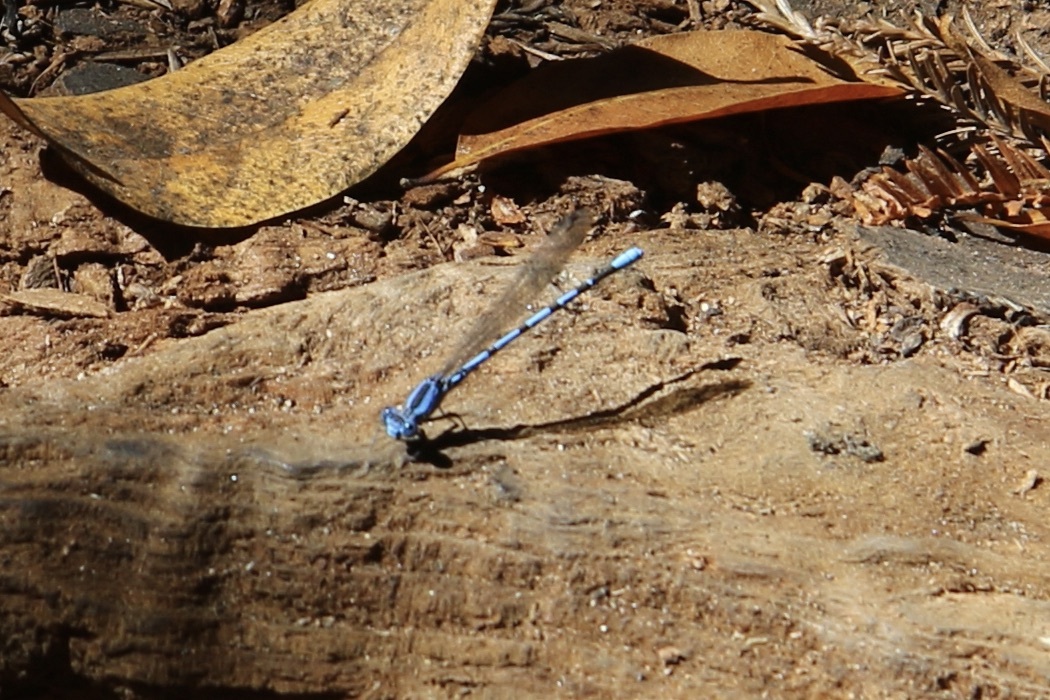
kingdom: Animalia
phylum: Arthropoda
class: Insecta
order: Odonata
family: Coenagrionidae
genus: Argia
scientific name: Argia vivida
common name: Vivid dancer
